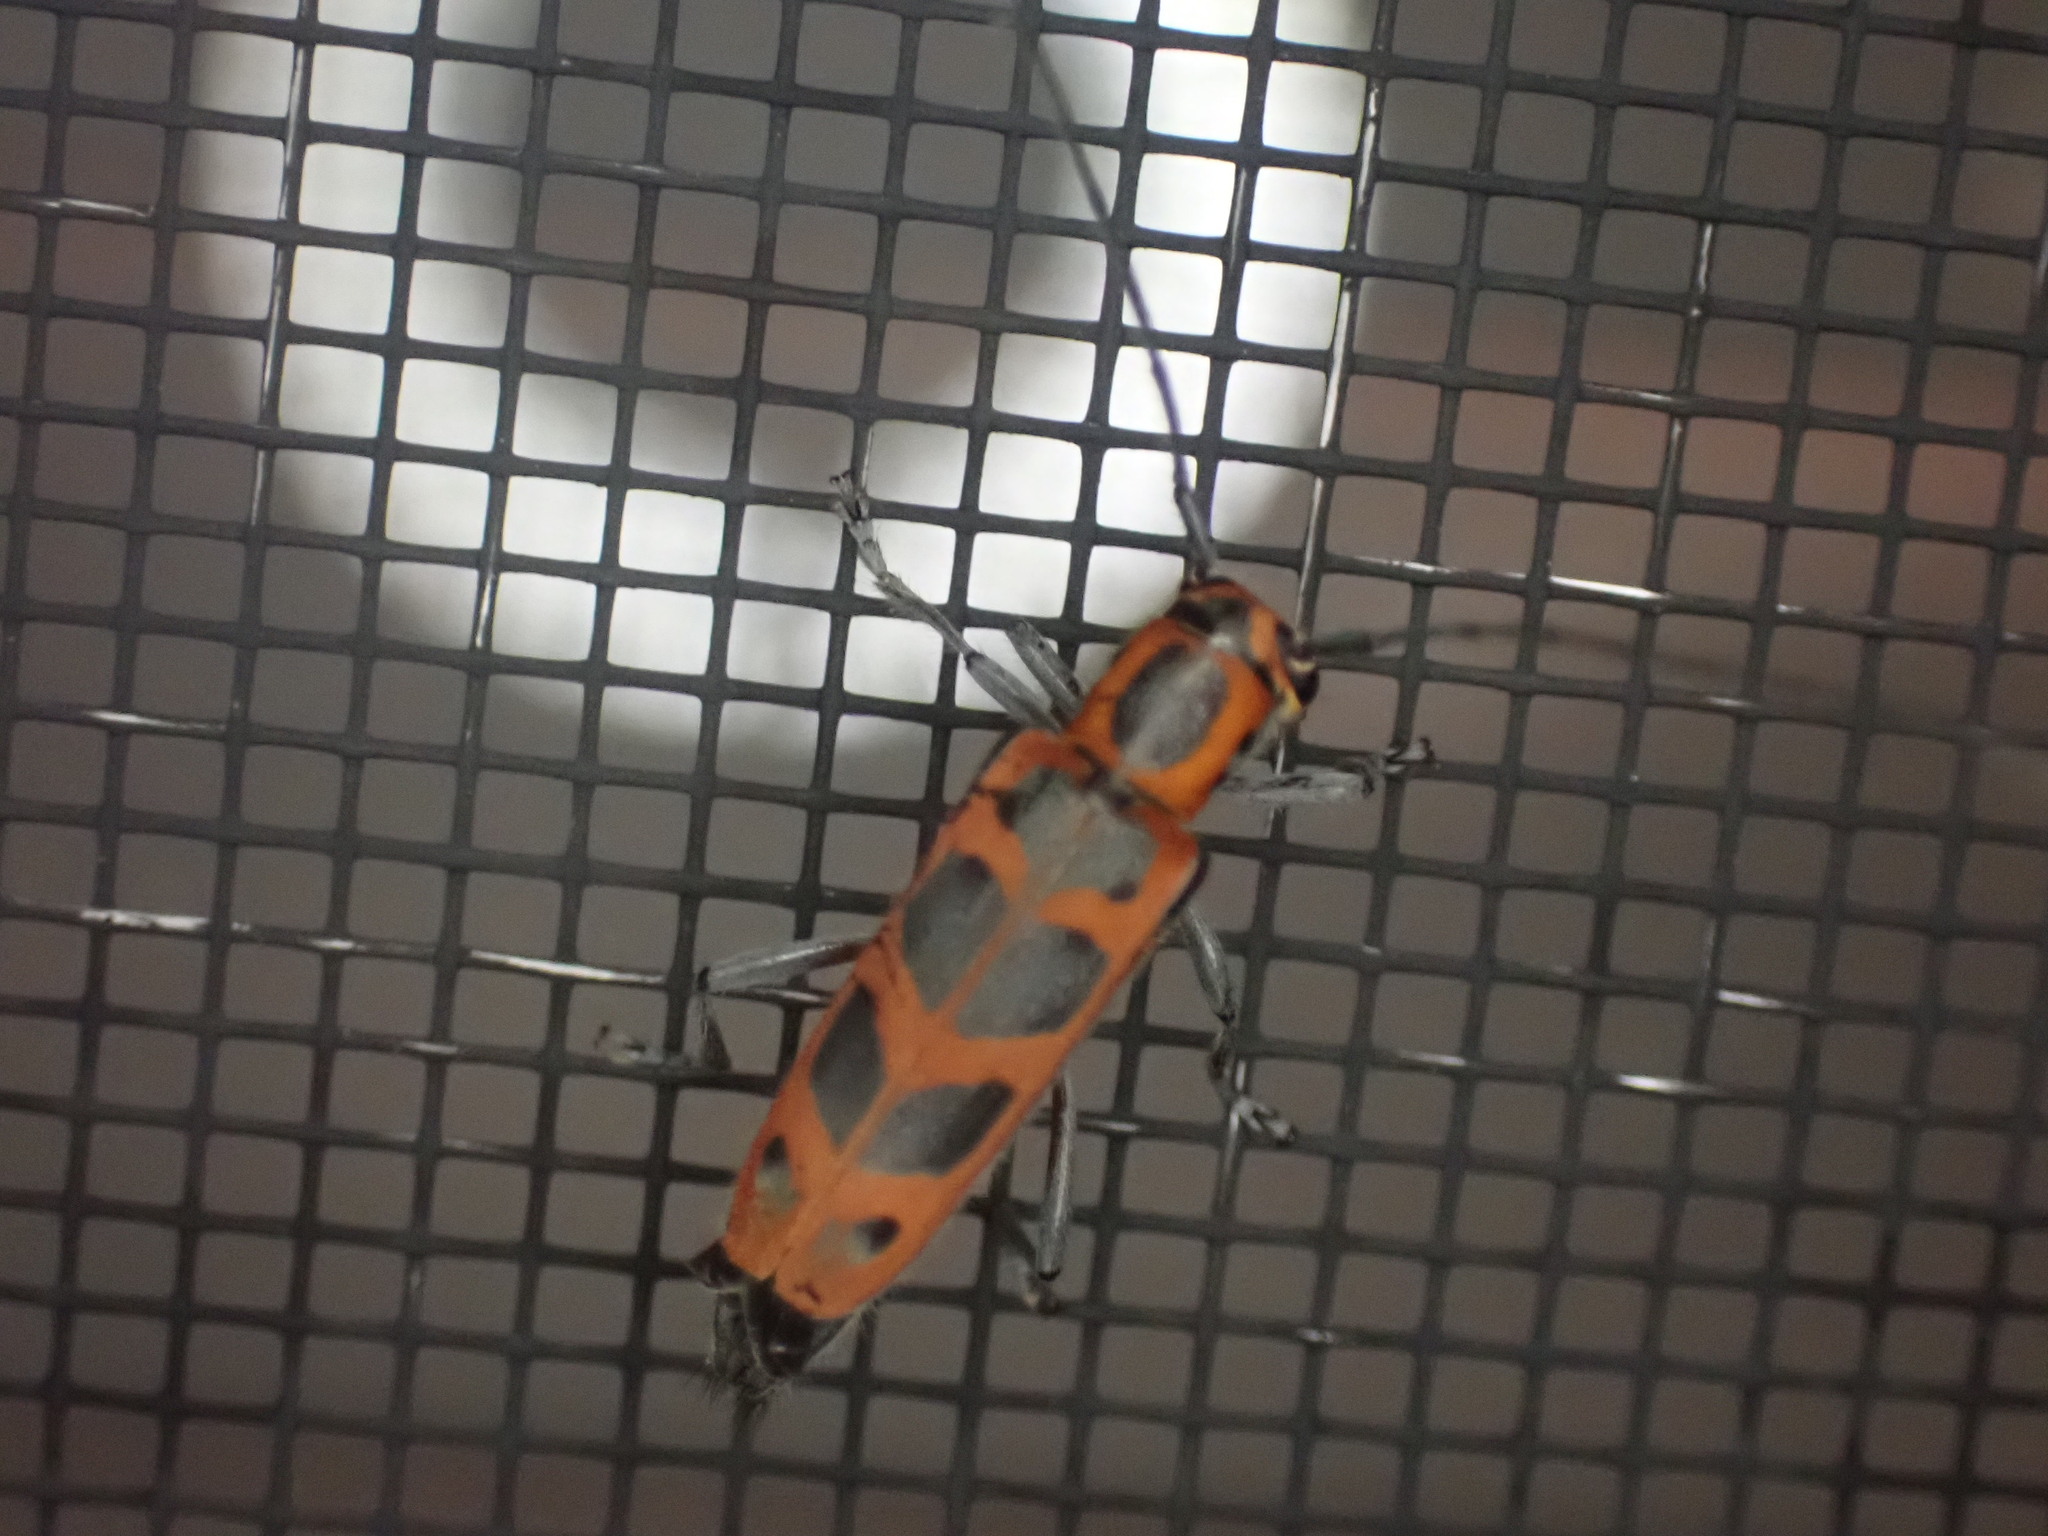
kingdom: Animalia
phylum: Arthropoda
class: Insecta
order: Coleoptera
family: Cerambycidae
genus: Saperda
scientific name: Saperda tridentata
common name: Elm borer
